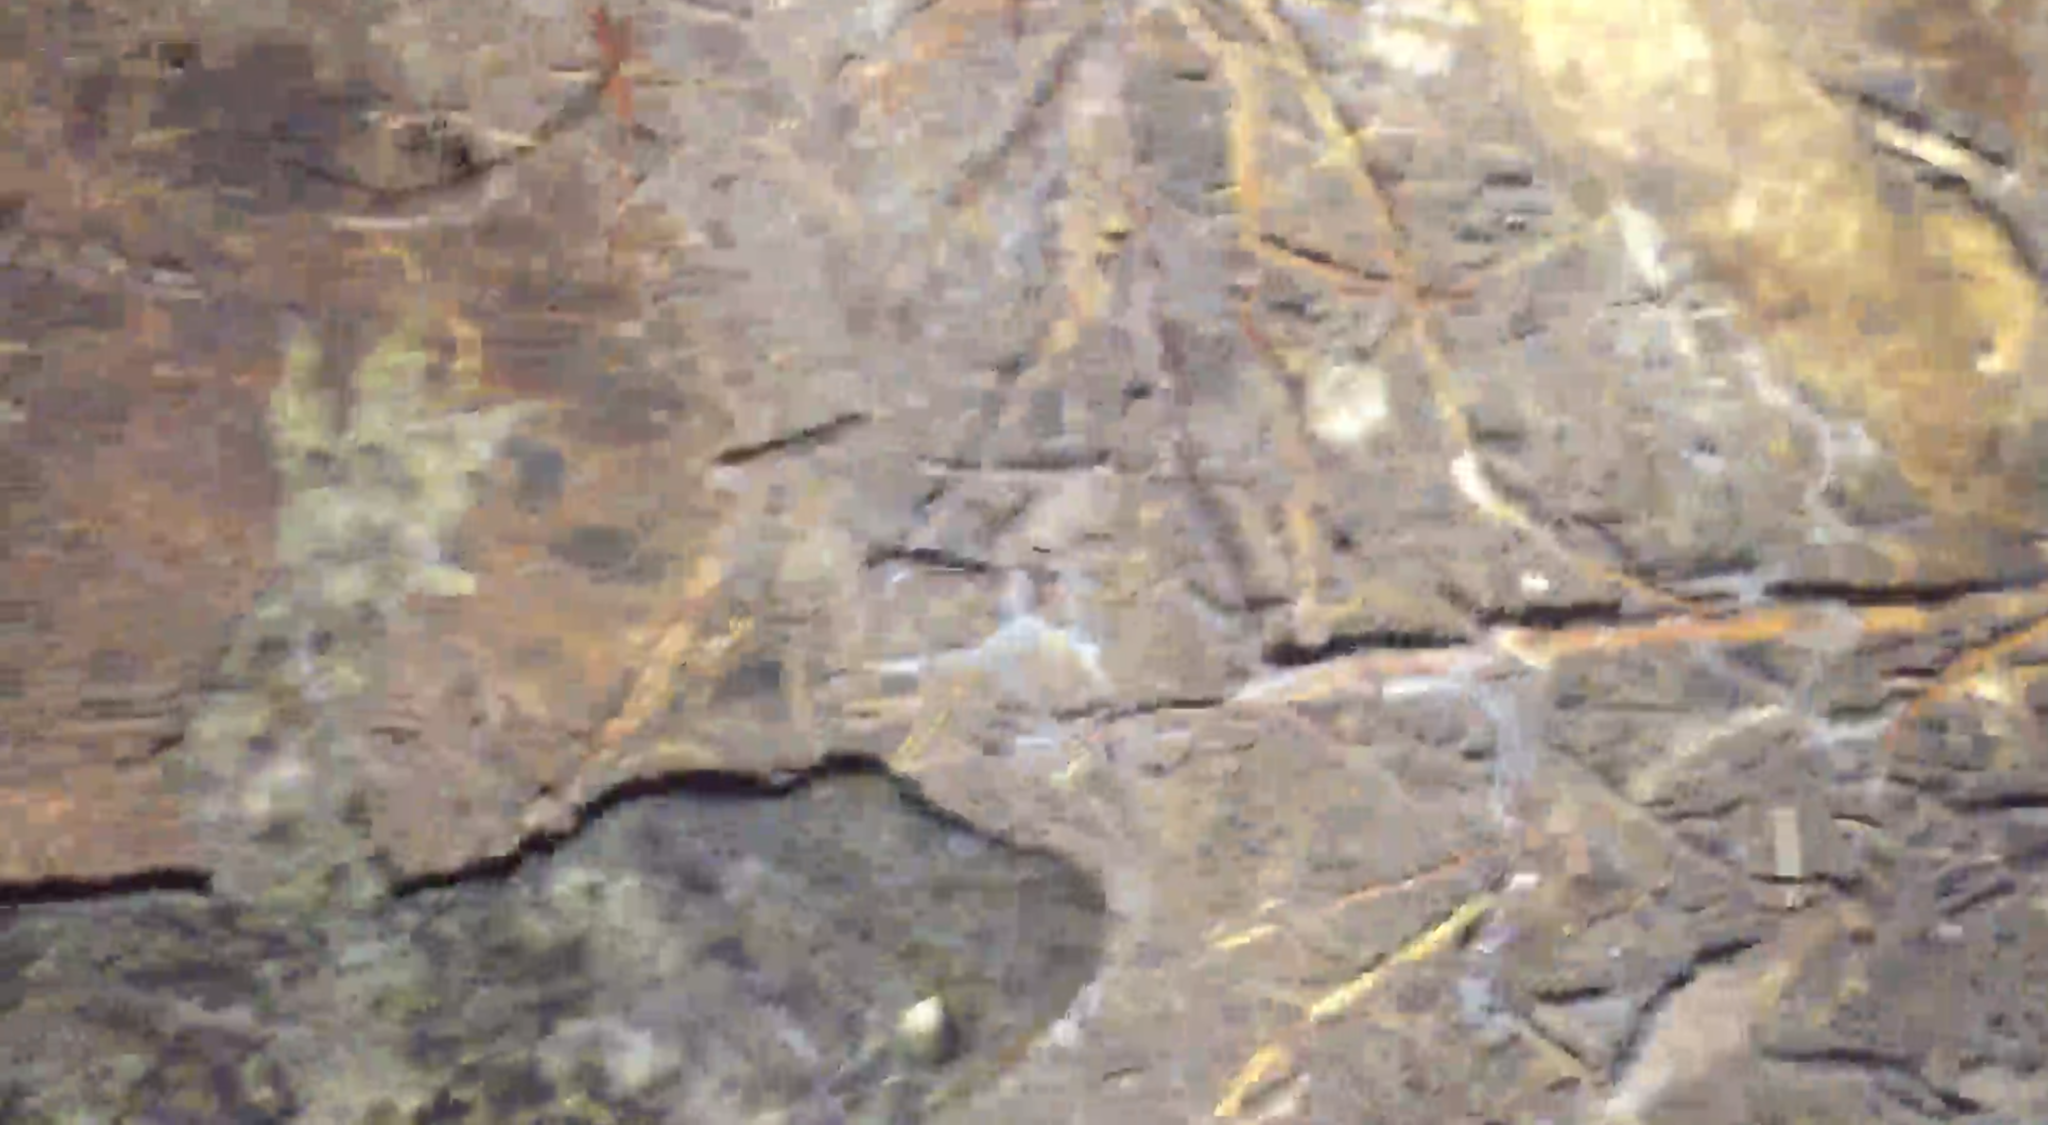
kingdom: Animalia
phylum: Chordata
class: Squamata
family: Diplodactylidae
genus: Hoplodactylus
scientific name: Hoplodactylus duvaucelii
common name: Duvaucel's gecko
